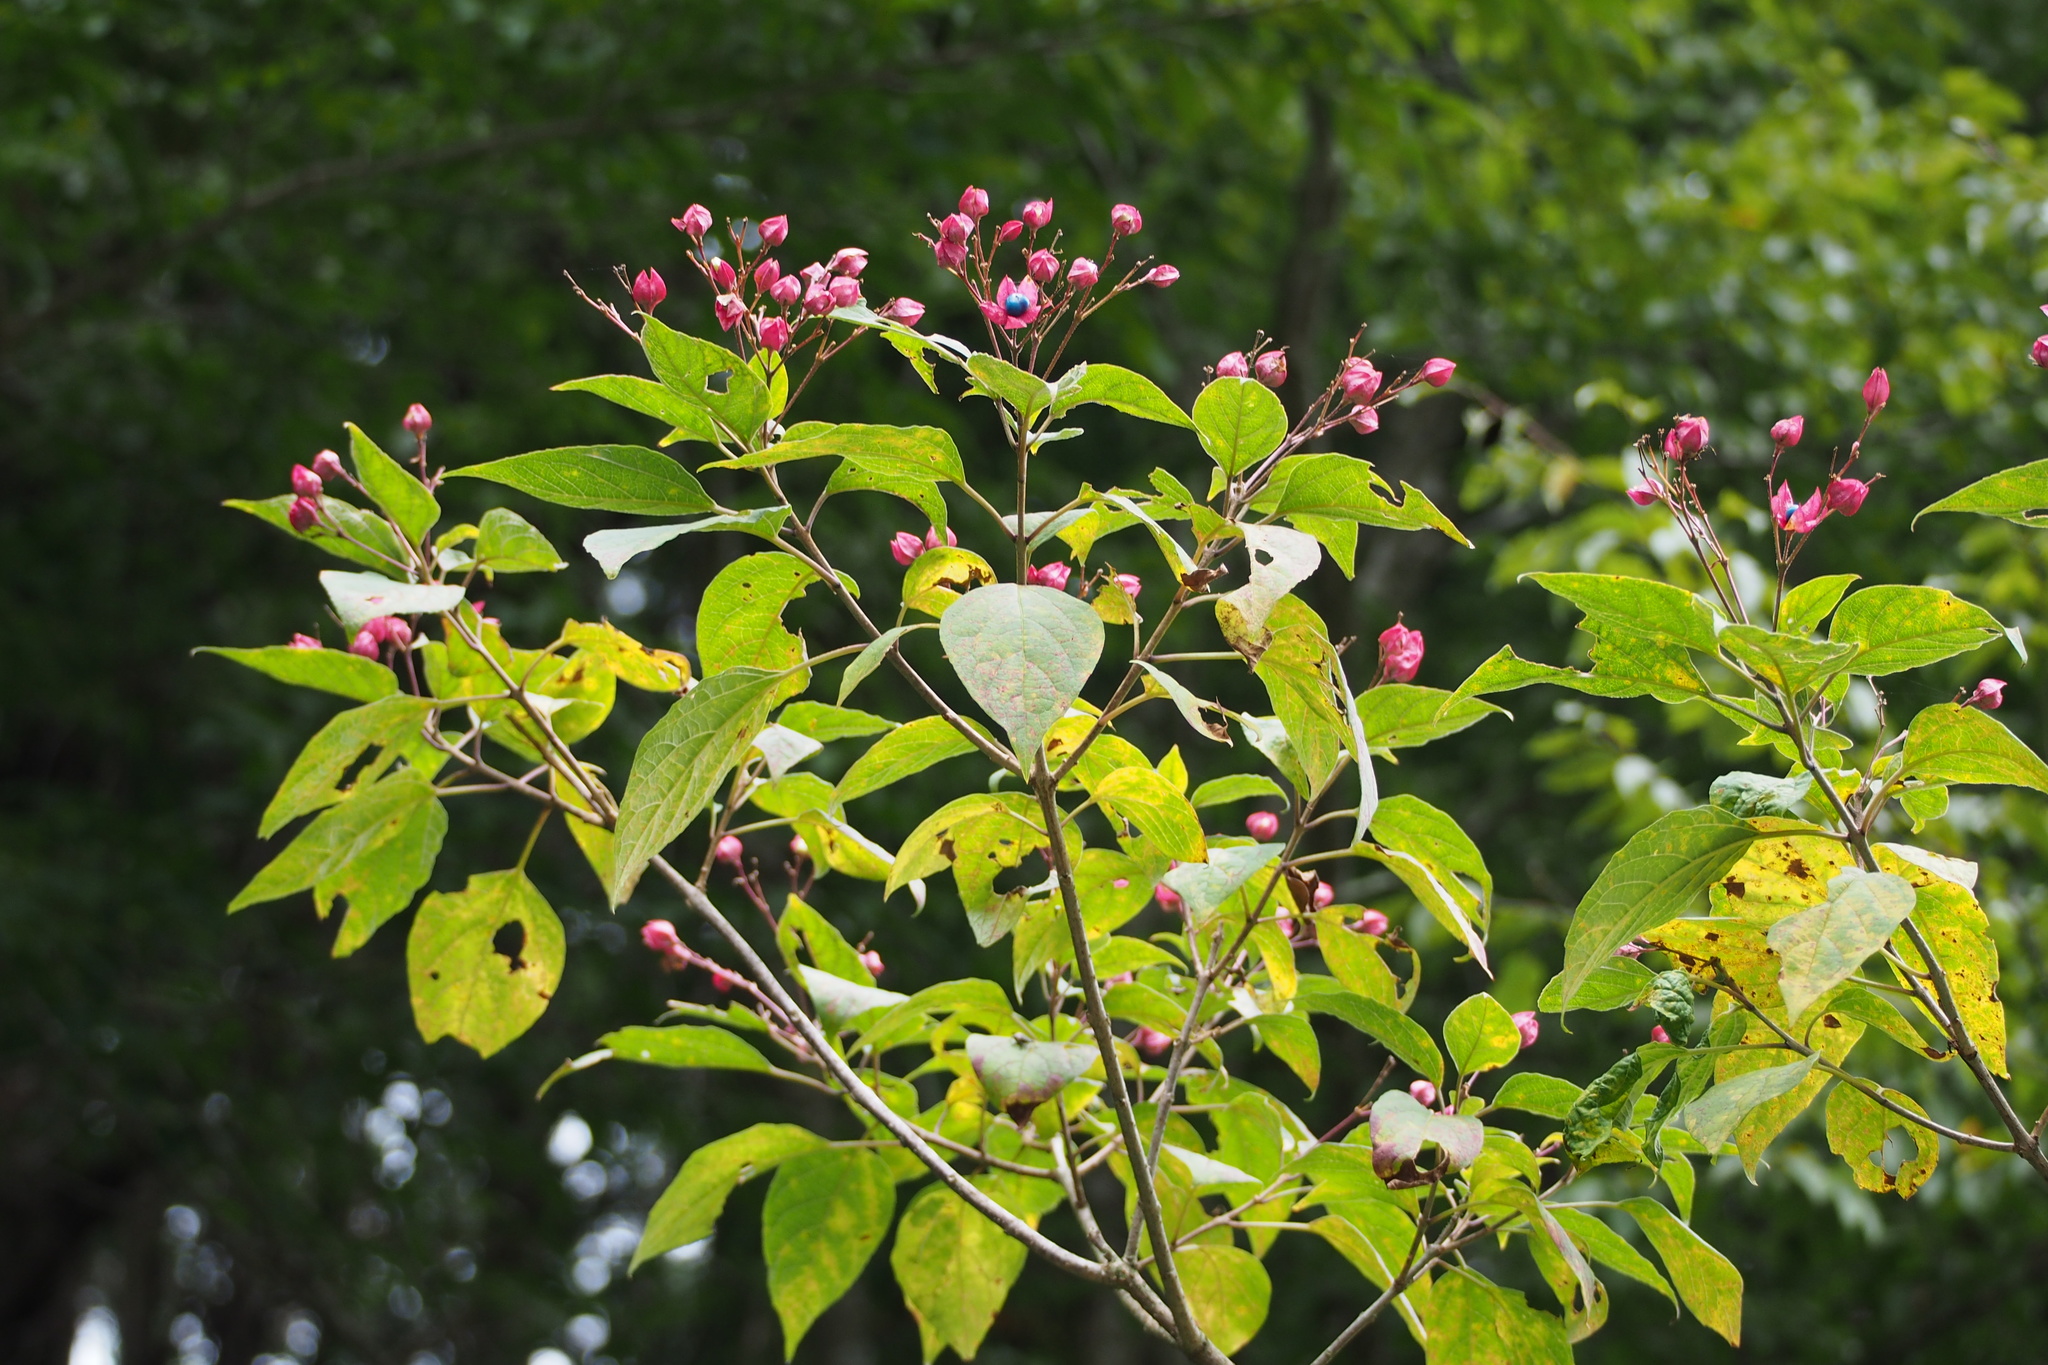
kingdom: Plantae
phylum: Tracheophyta
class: Magnoliopsida
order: Lamiales
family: Lamiaceae
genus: Clerodendrum
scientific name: Clerodendrum trichotomum
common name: Harlequin glorybower
